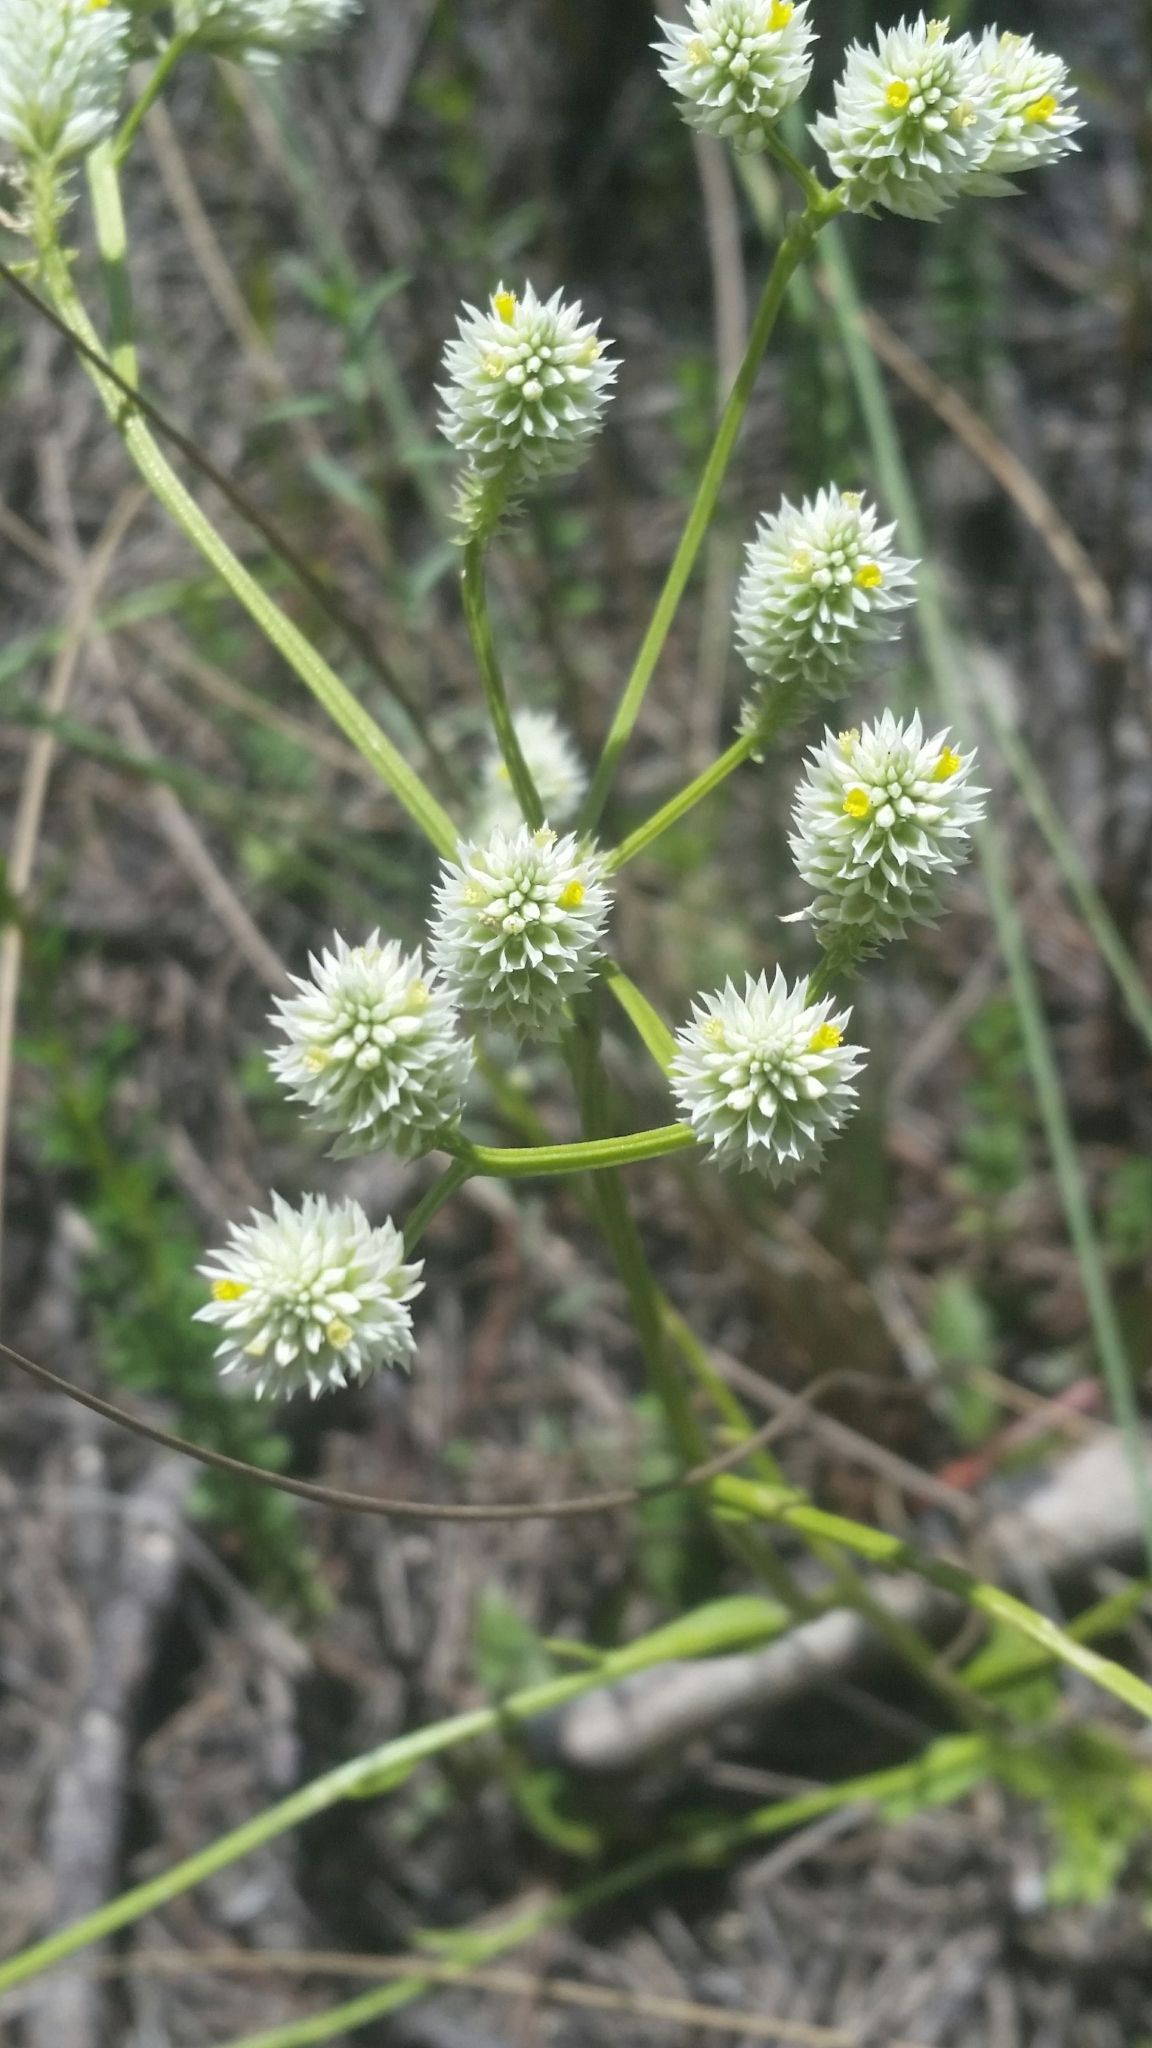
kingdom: Plantae
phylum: Tracheophyta
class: Magnoliopsida
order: Fabales
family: Polygalaceae
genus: Polygala
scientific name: Polygala baldwinii
